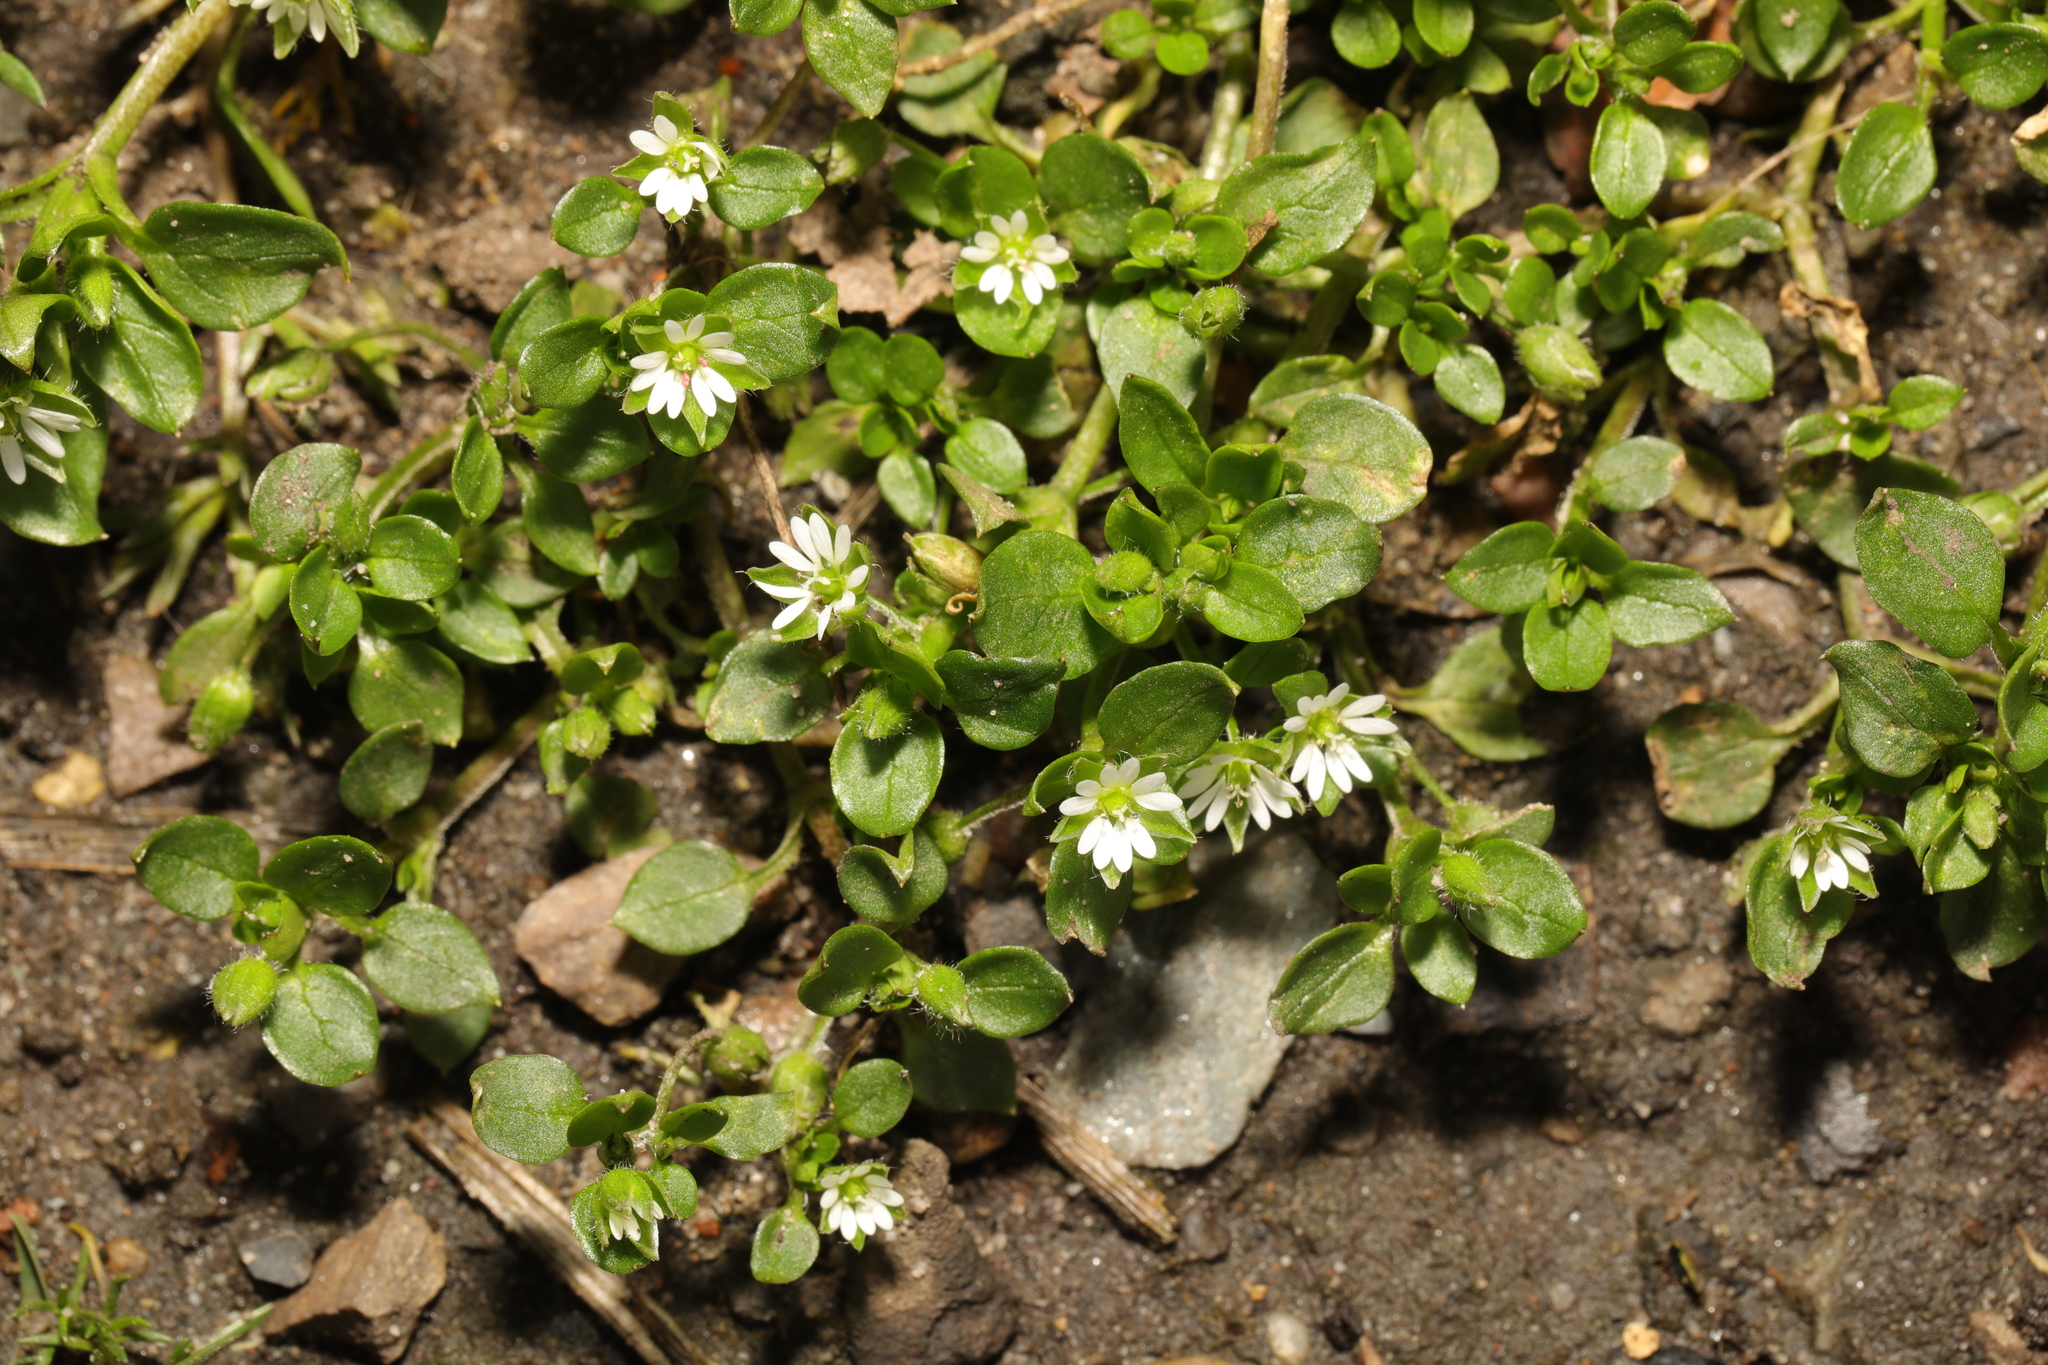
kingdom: Plantae
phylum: Tracheophyta
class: Magnoliopsida
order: Caryophyllales
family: Caryophyllaceae
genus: Stellaria
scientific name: Stellaria media
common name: Common chickweed
